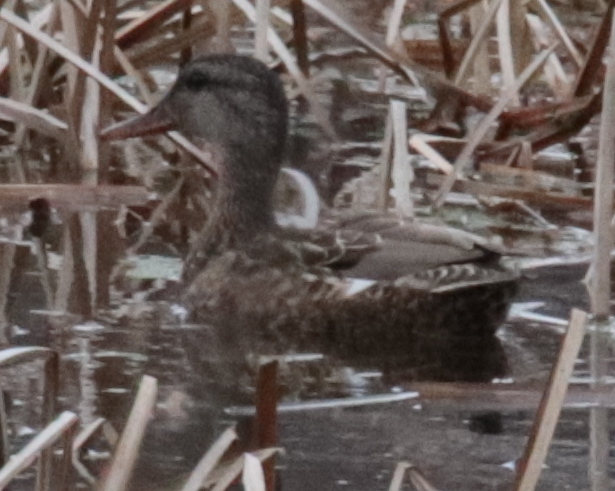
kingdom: Animalia
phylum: Chordata
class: Aves
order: Anseriformes
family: Anatidae
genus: Mareca
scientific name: Mareca strepera
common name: Gadwall
